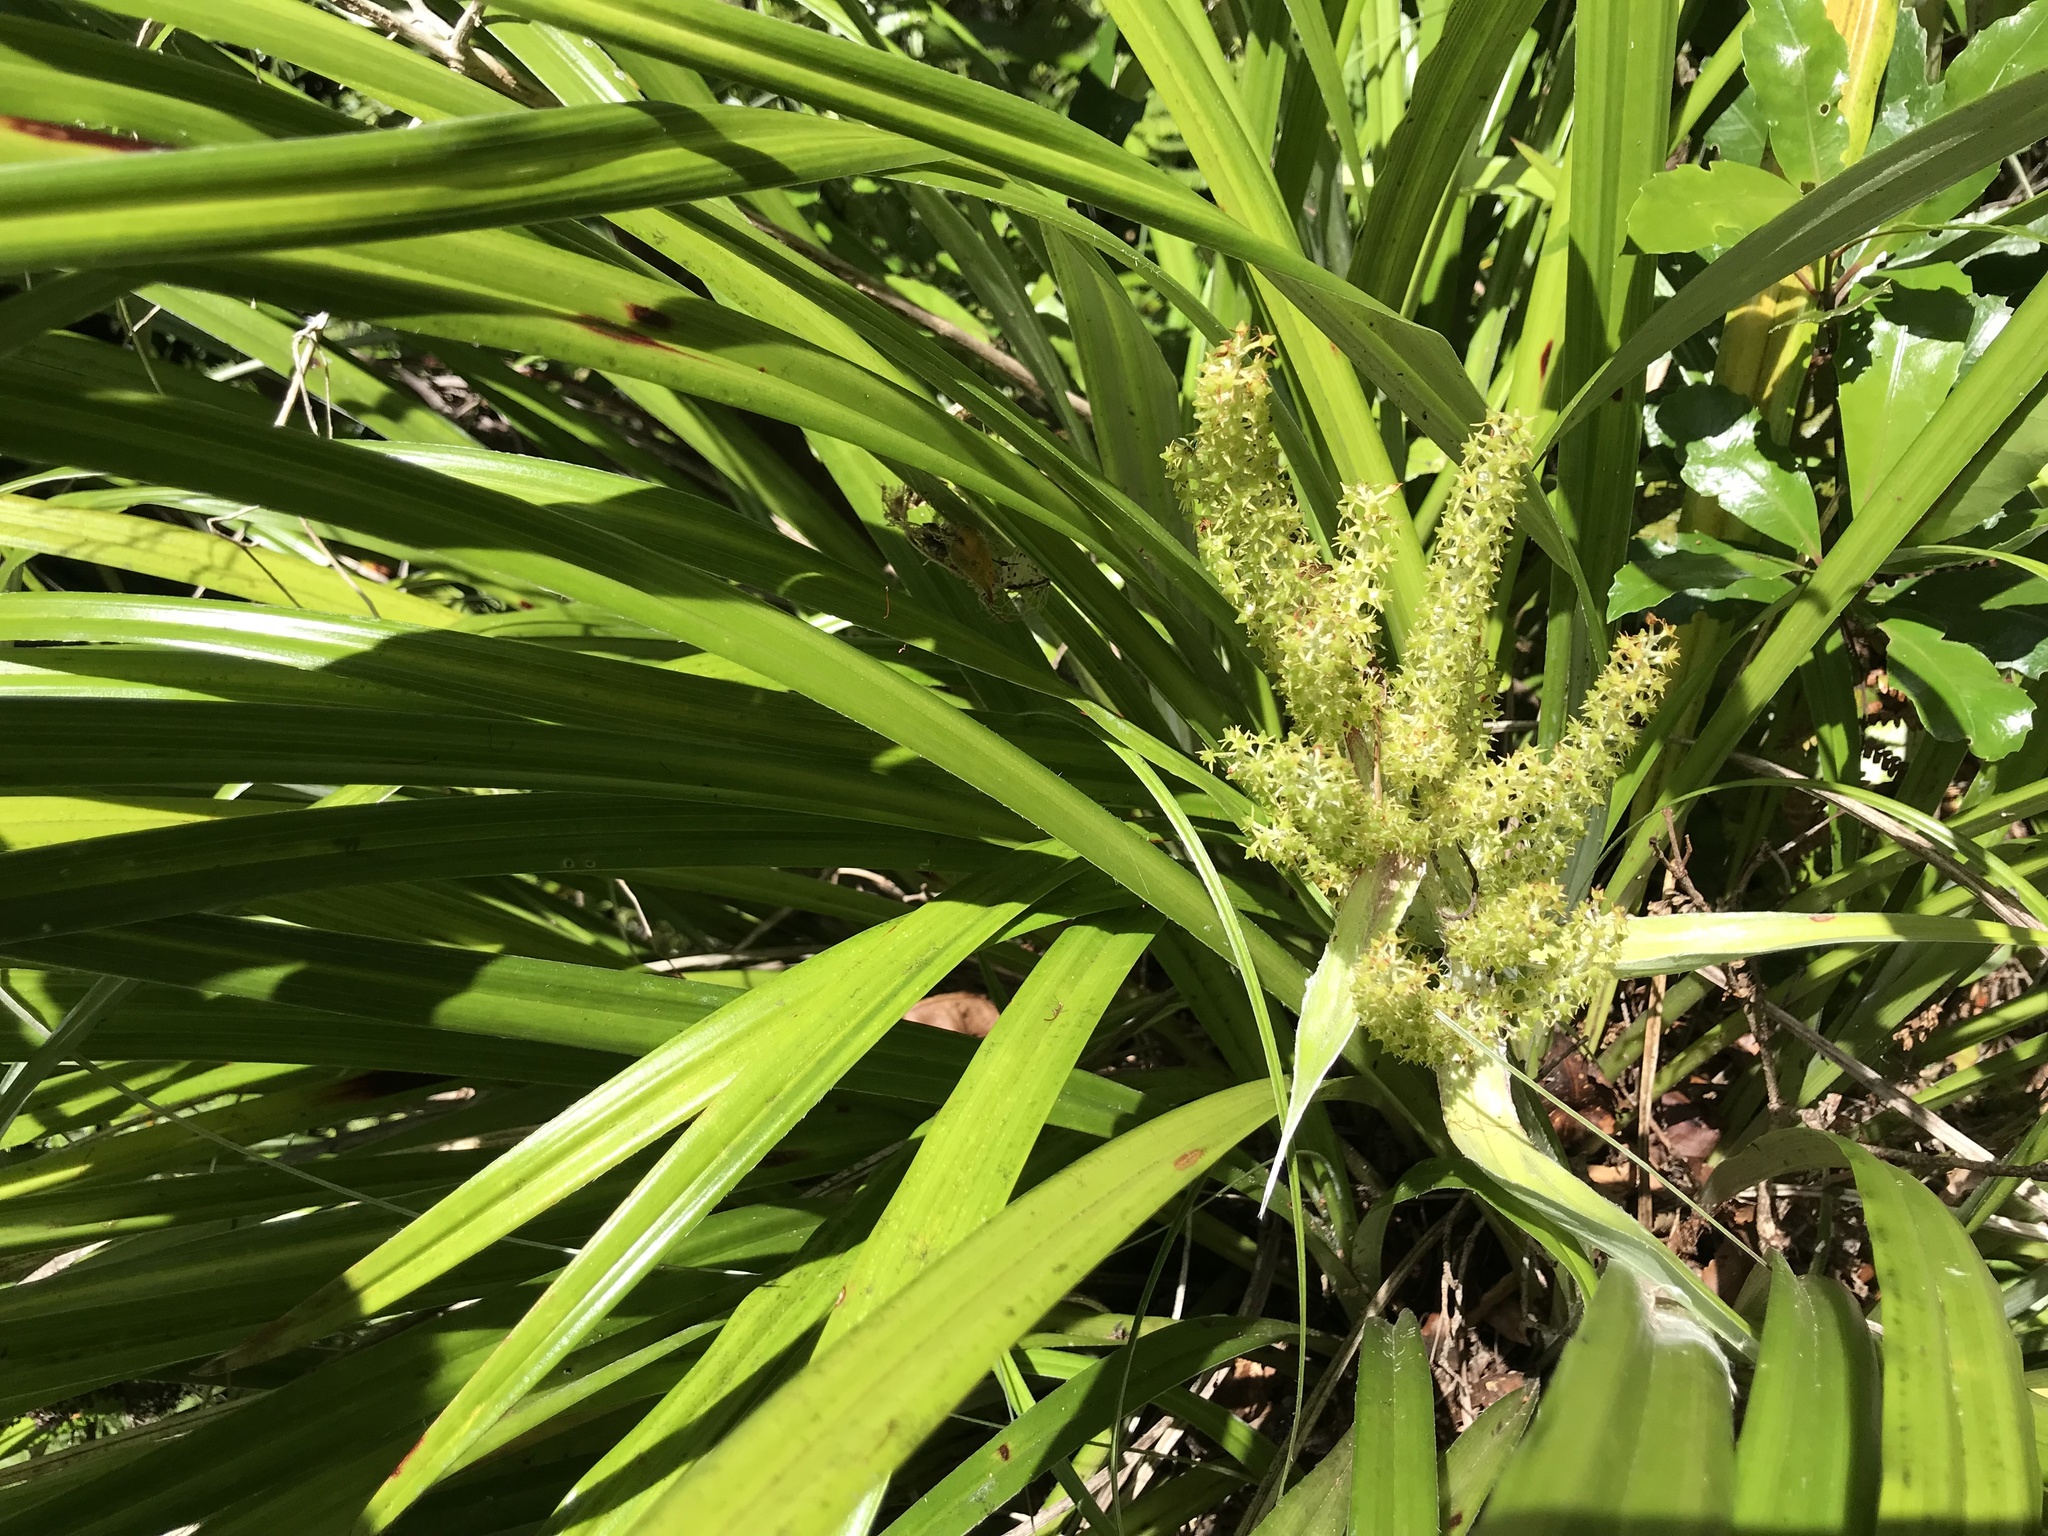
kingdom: Plantae
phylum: Tracheophyta
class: Liliopsida
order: Asparagales
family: Asteliaceae
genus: Astelia
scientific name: Astelia solandri
